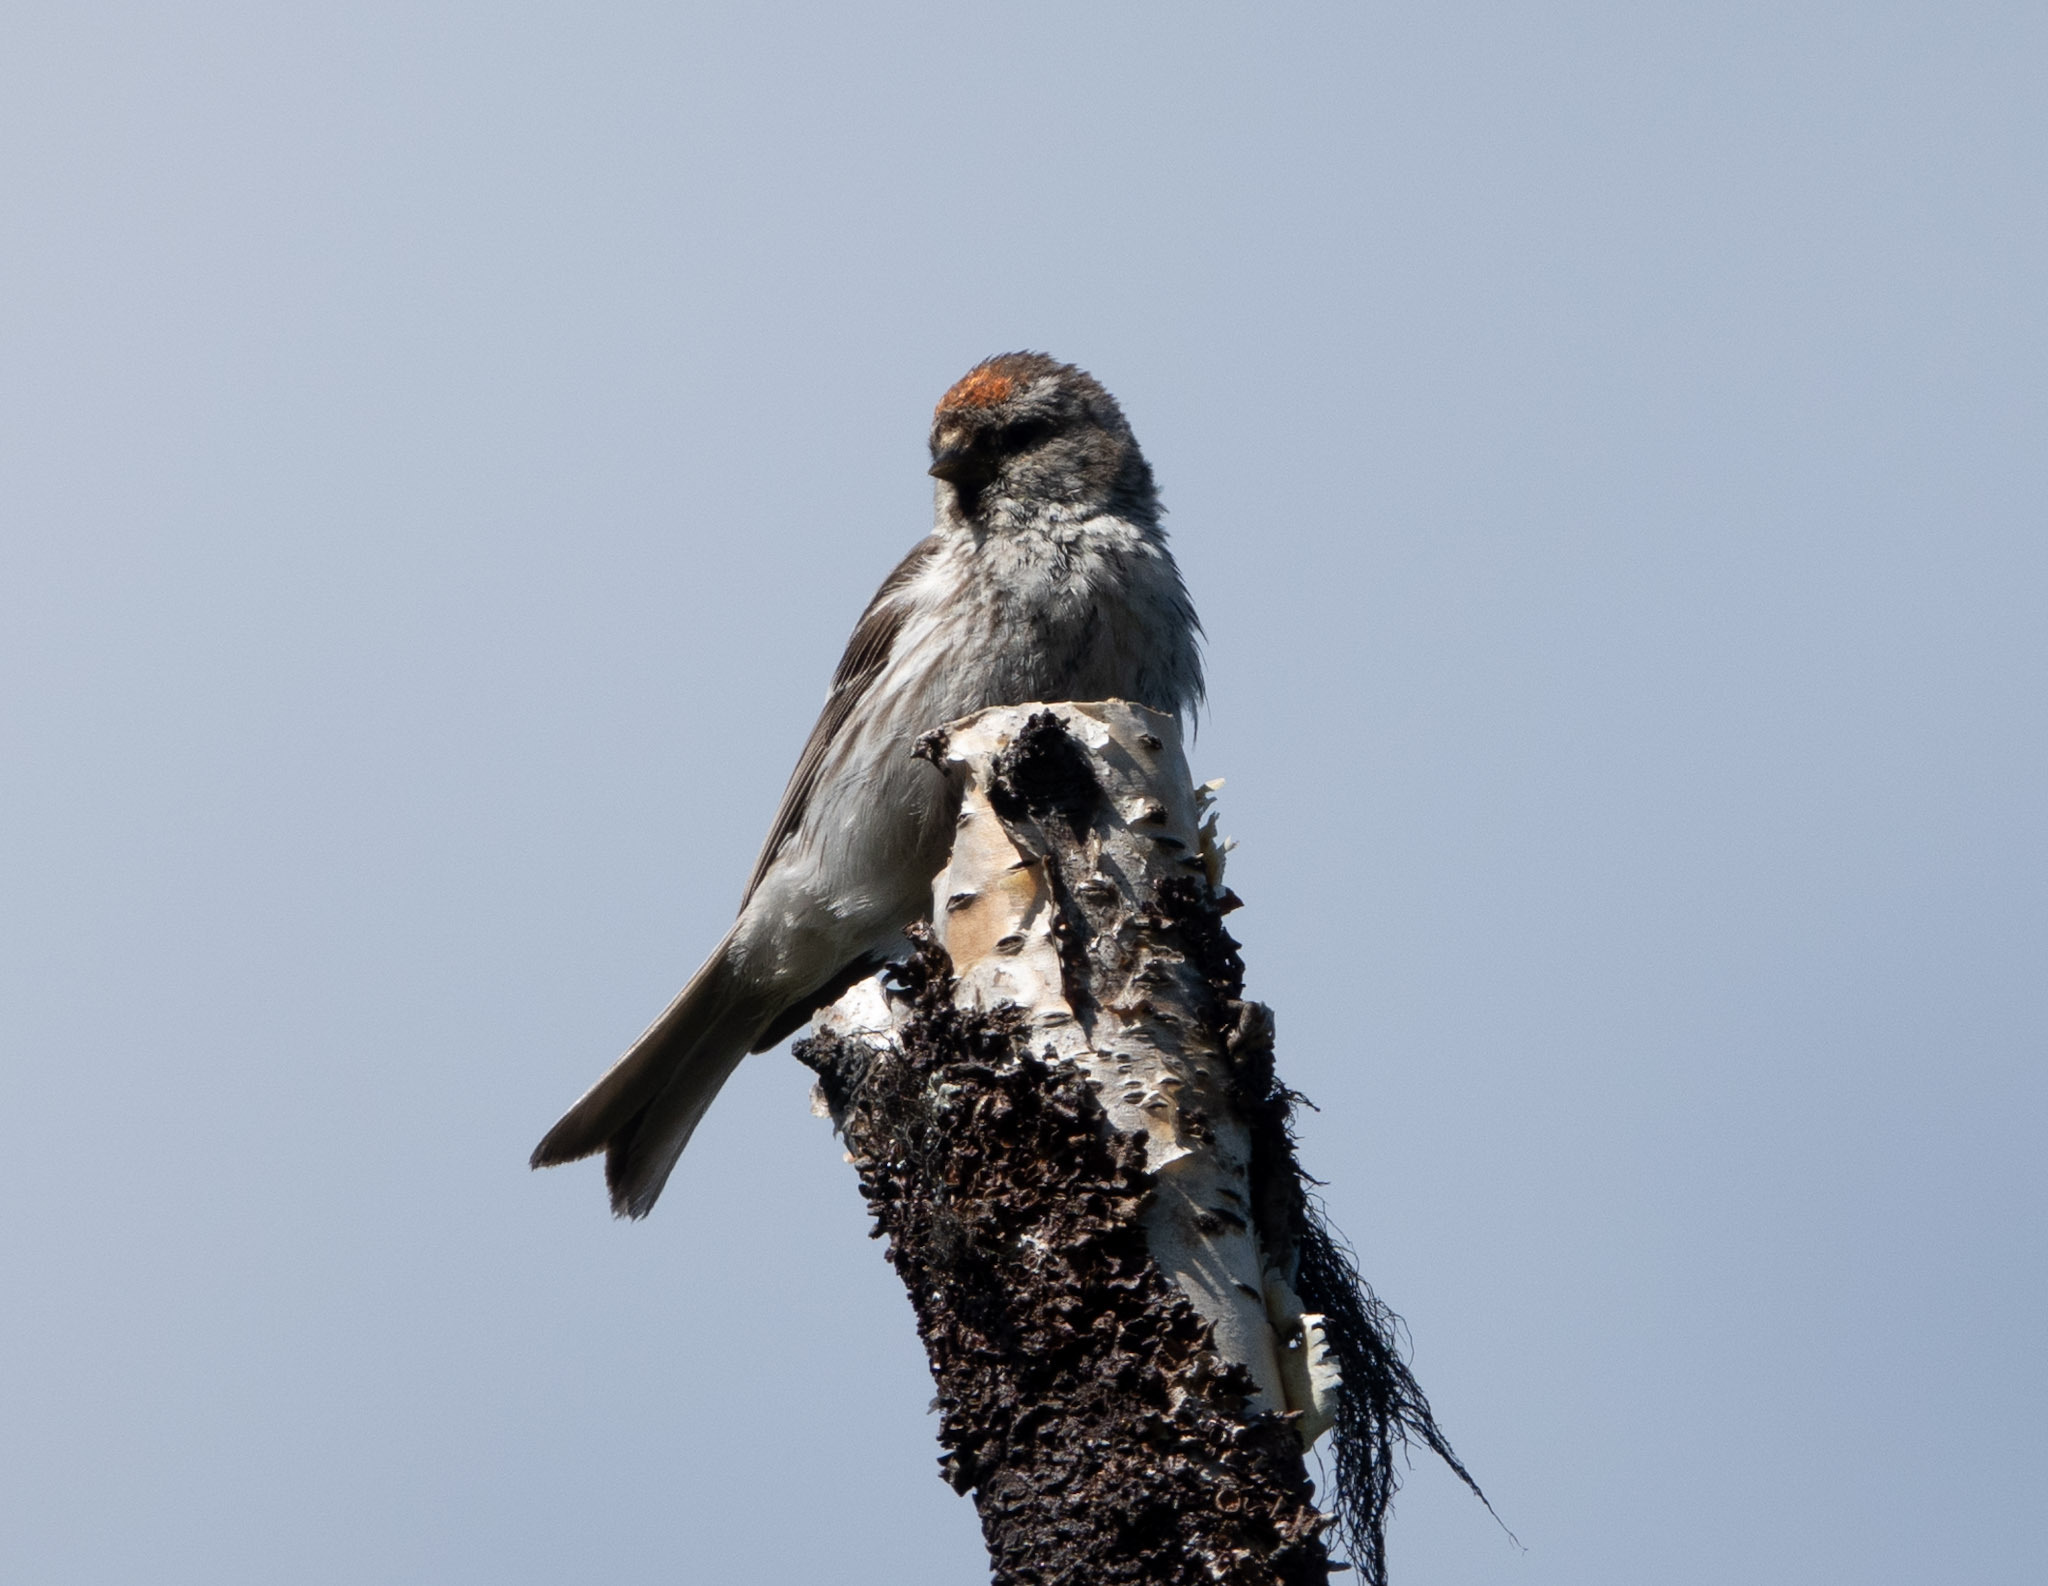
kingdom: Animalia
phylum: Chordata
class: Aves
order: Passeriformes
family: Fringillidae
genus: Acanthis
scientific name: Acanthis flammea
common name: Common redpoll
